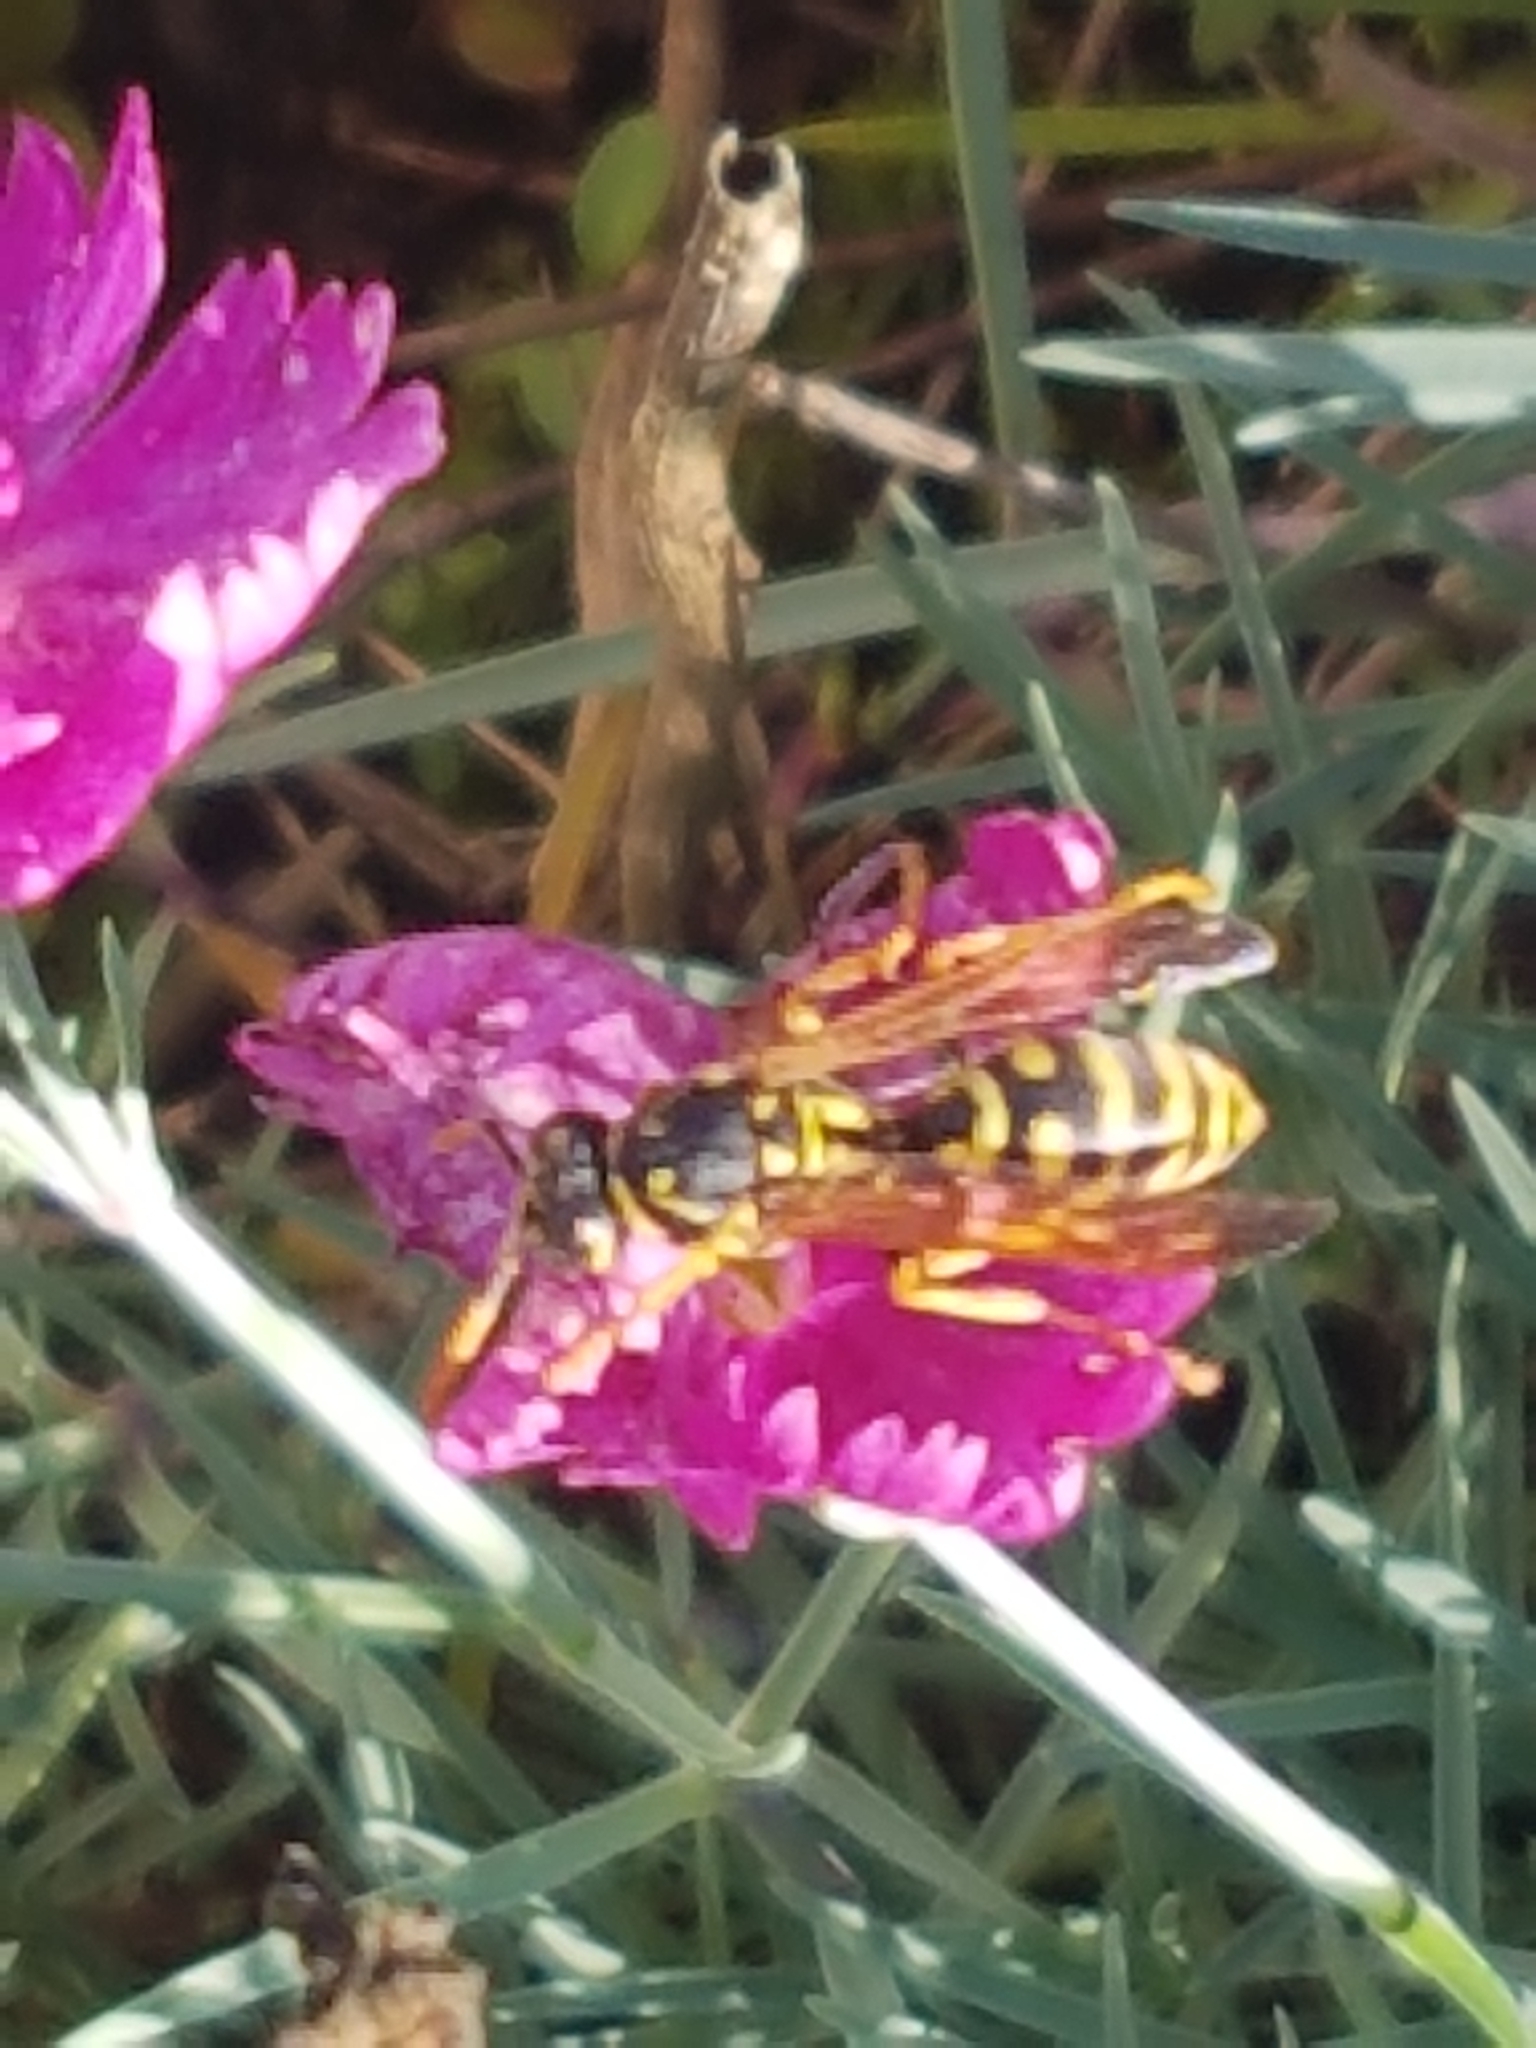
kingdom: Animalia
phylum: Arthropoda
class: Insecta
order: Hymenoptera
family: Eumenidae
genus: Polistes
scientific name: Polistes dominula
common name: Paper wasp
